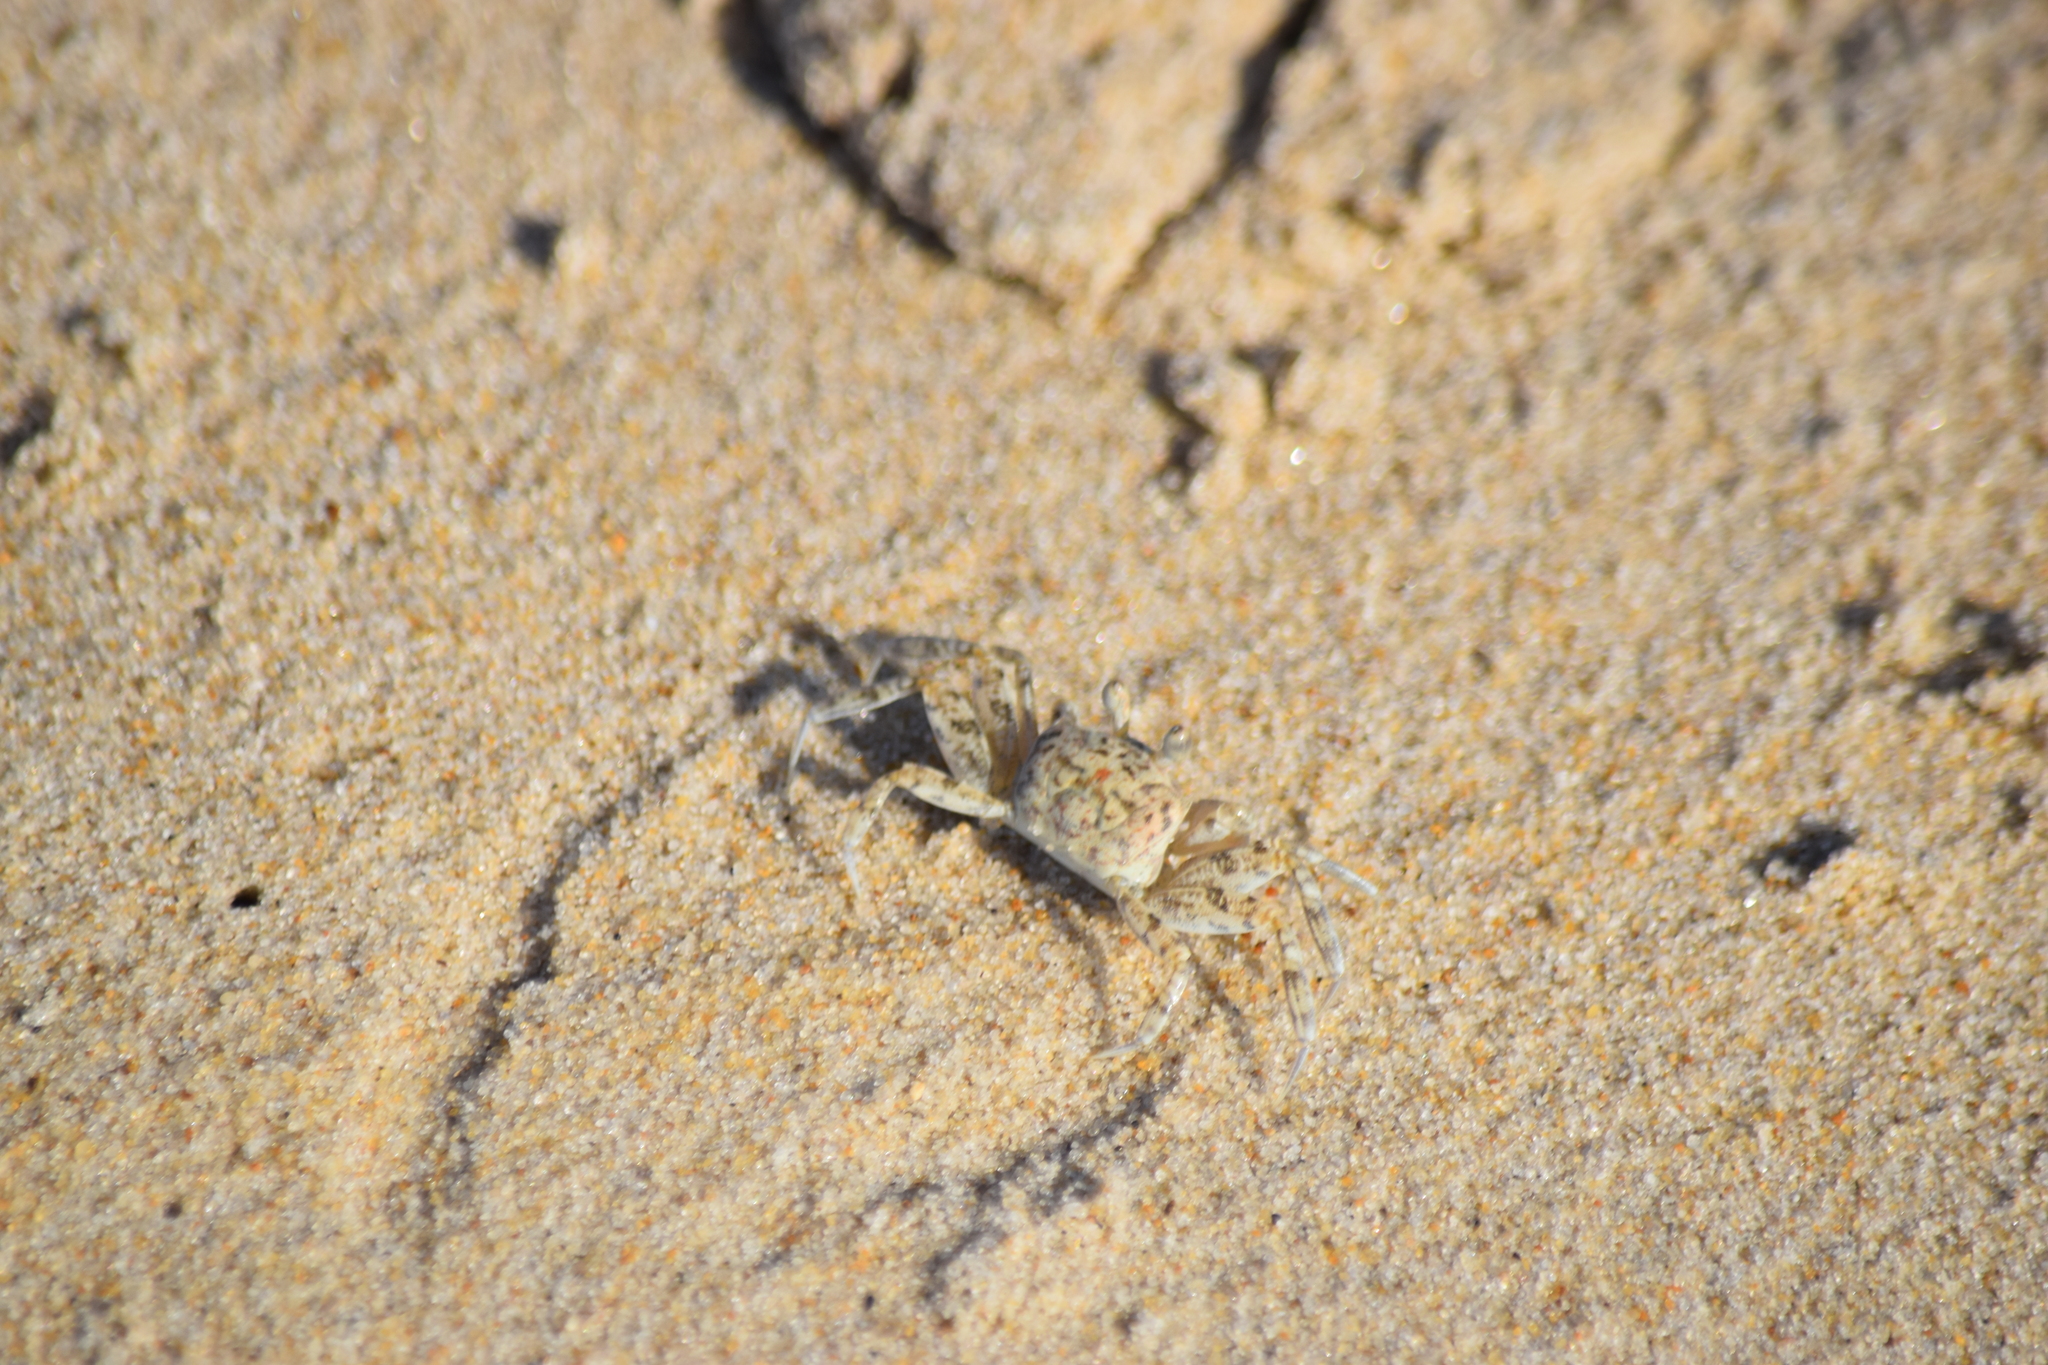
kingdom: Animalia
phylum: Arthropoda
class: Malacostraca
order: Decapoda
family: Ocypodidae
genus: Ocypode
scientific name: Ocypode quadrata
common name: Ghost crab
